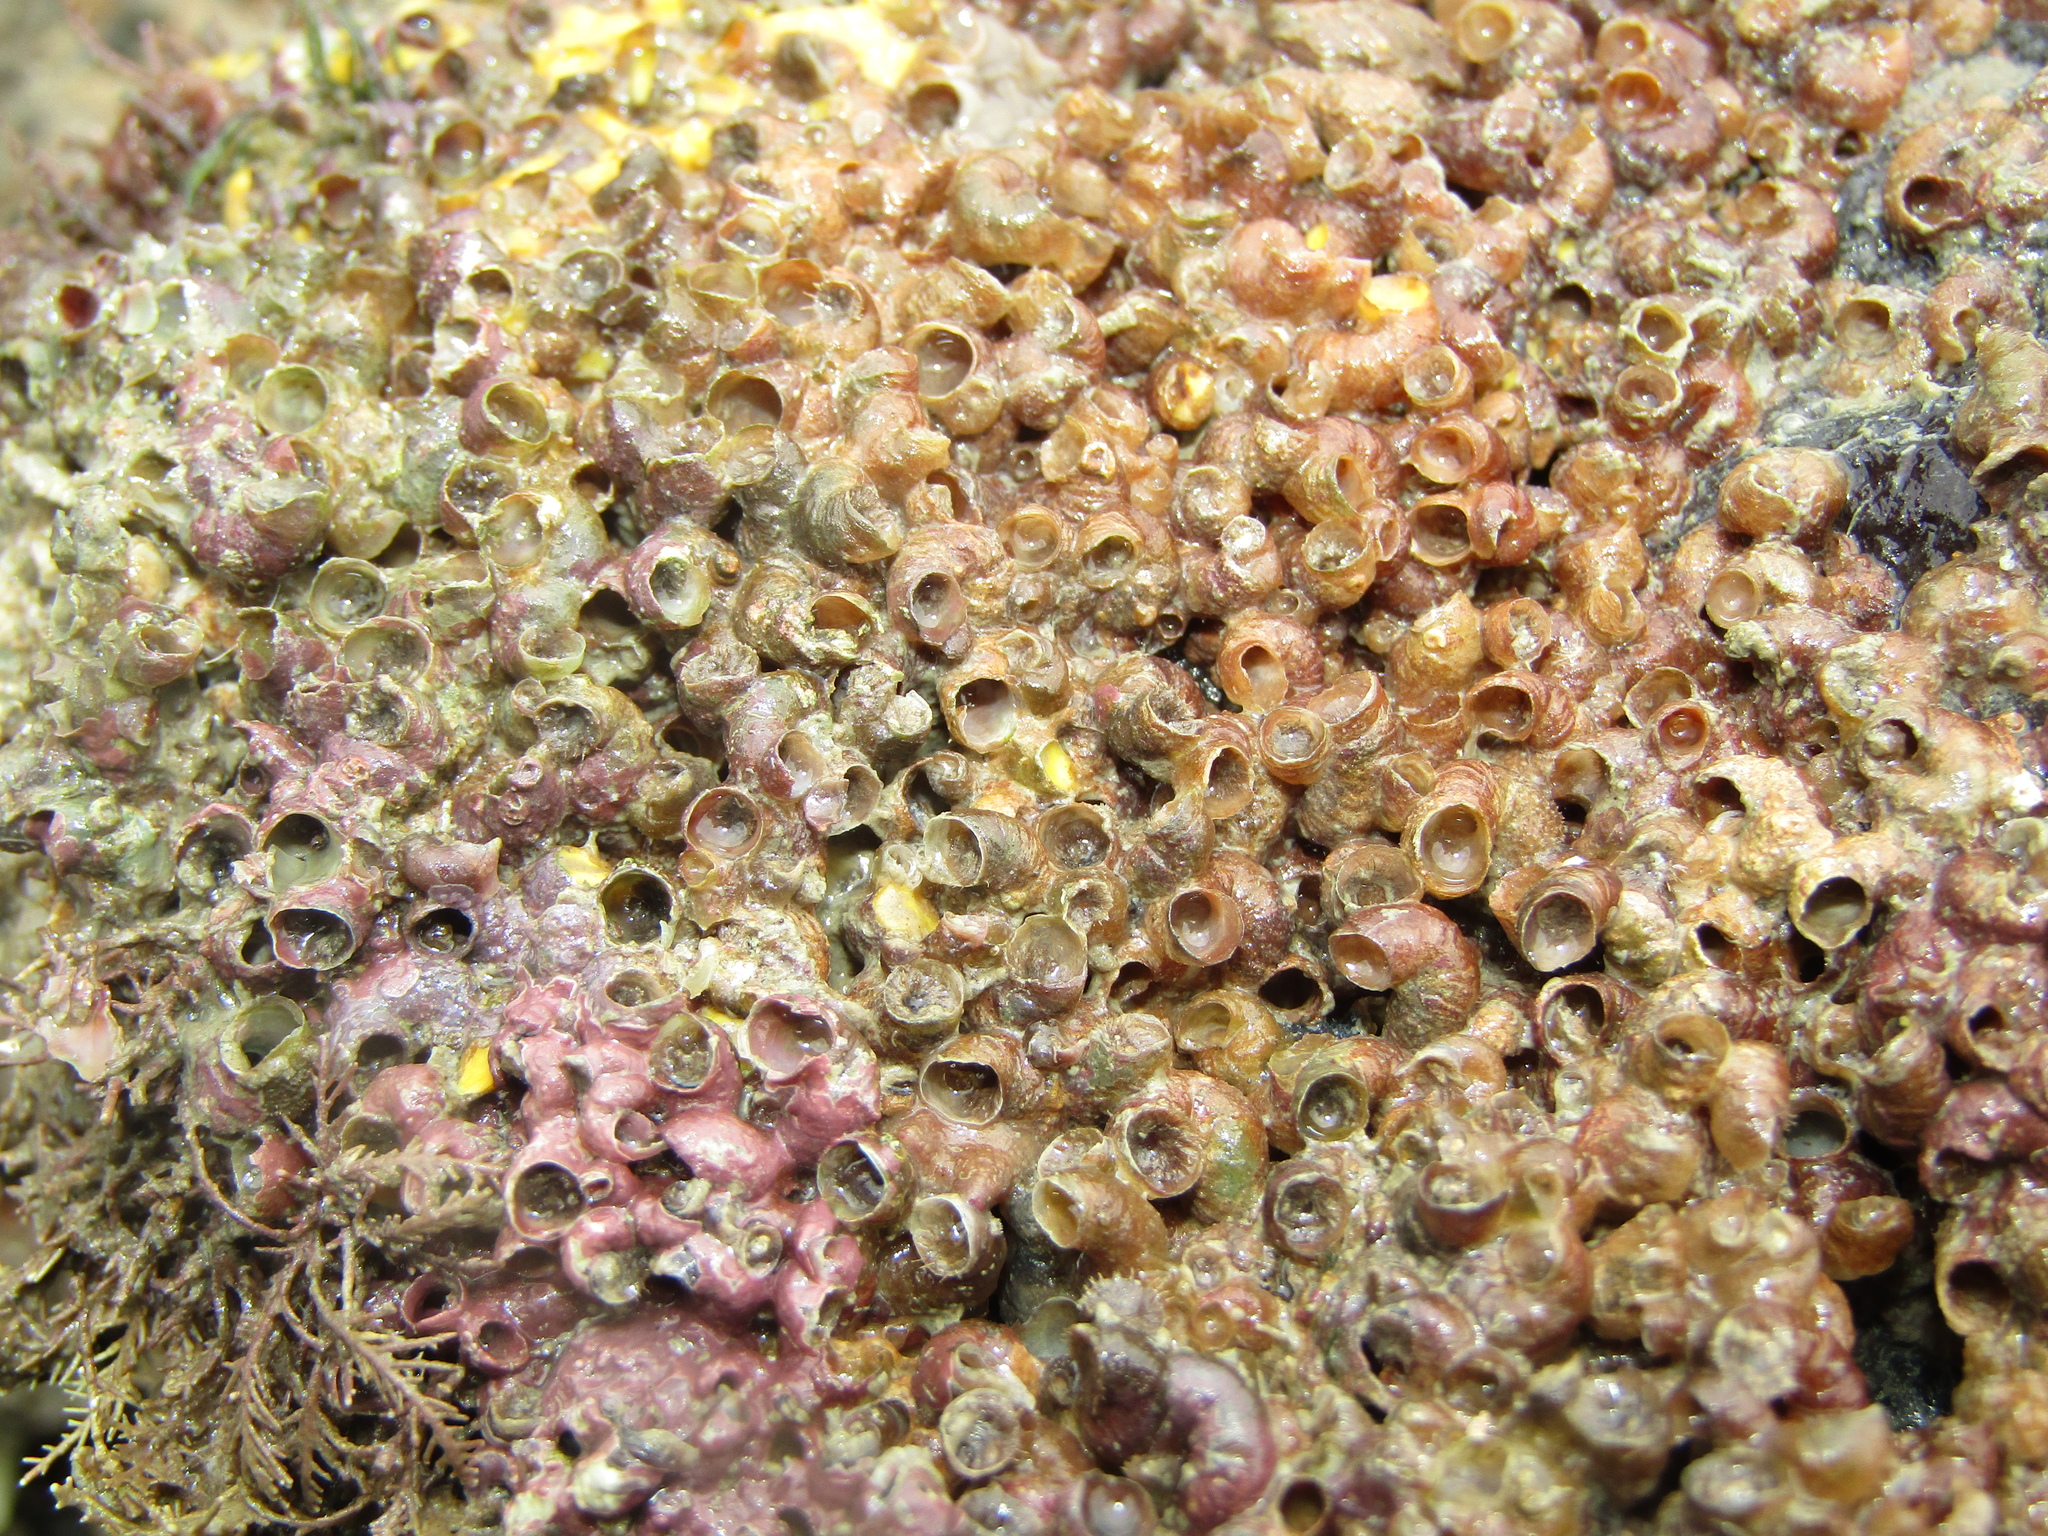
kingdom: Animalia
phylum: Mollusca
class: Gastropoda
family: Siliquariidae
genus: Stephopoma
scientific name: Stephopoma roseum
